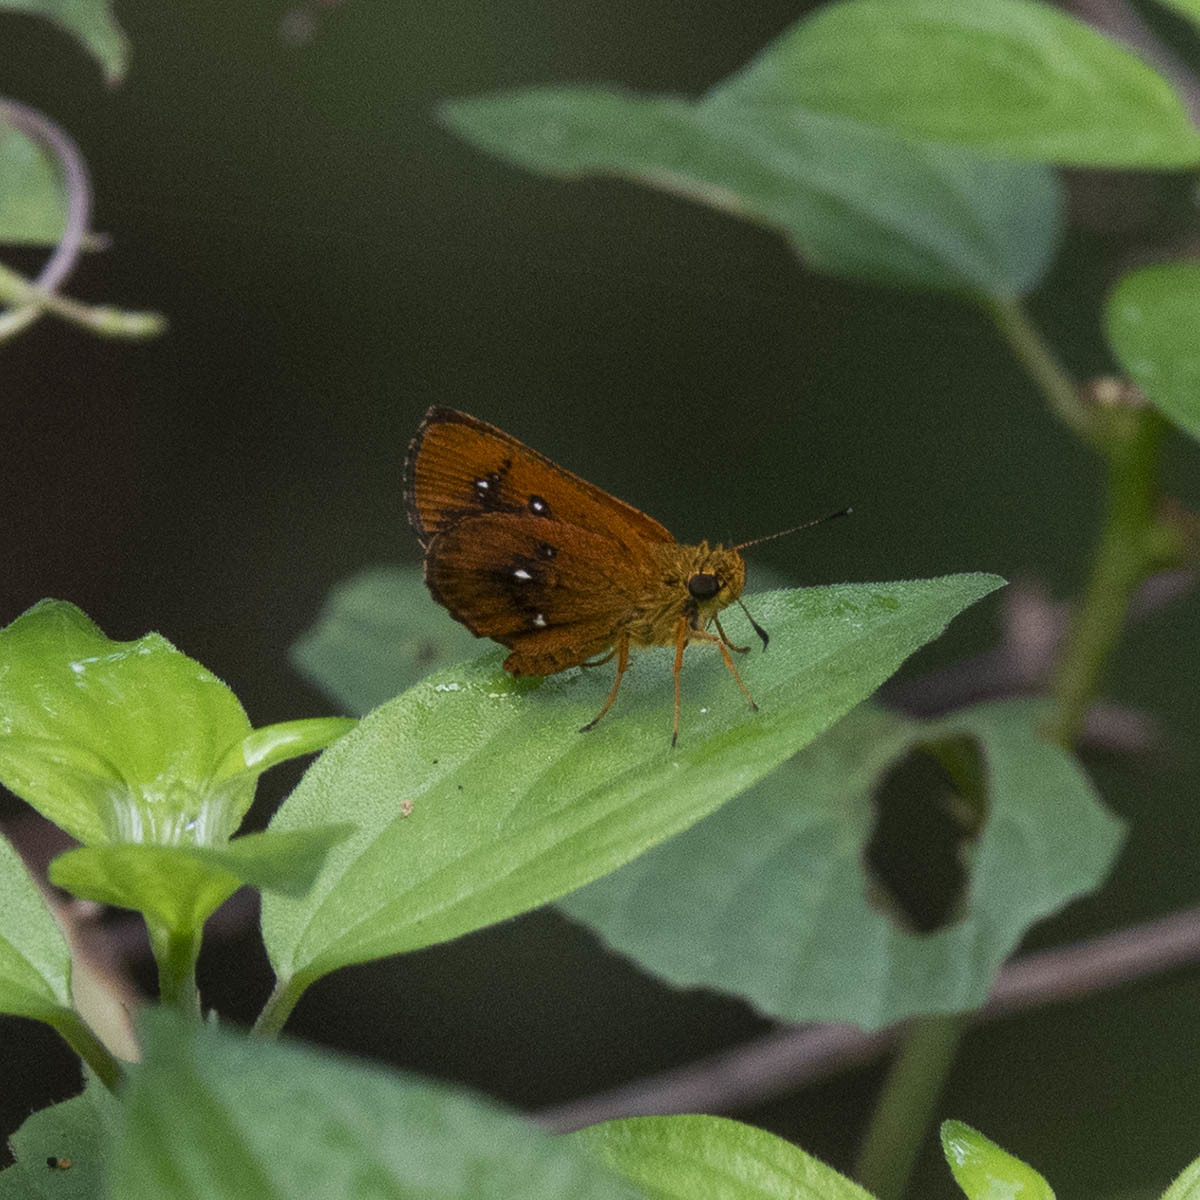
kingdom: Animalia
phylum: Arthropoda
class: Insecta
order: Lepidoptera
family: Hesperiidae
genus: Iambrix
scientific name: Iambrix salsala
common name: Chestnut bob
